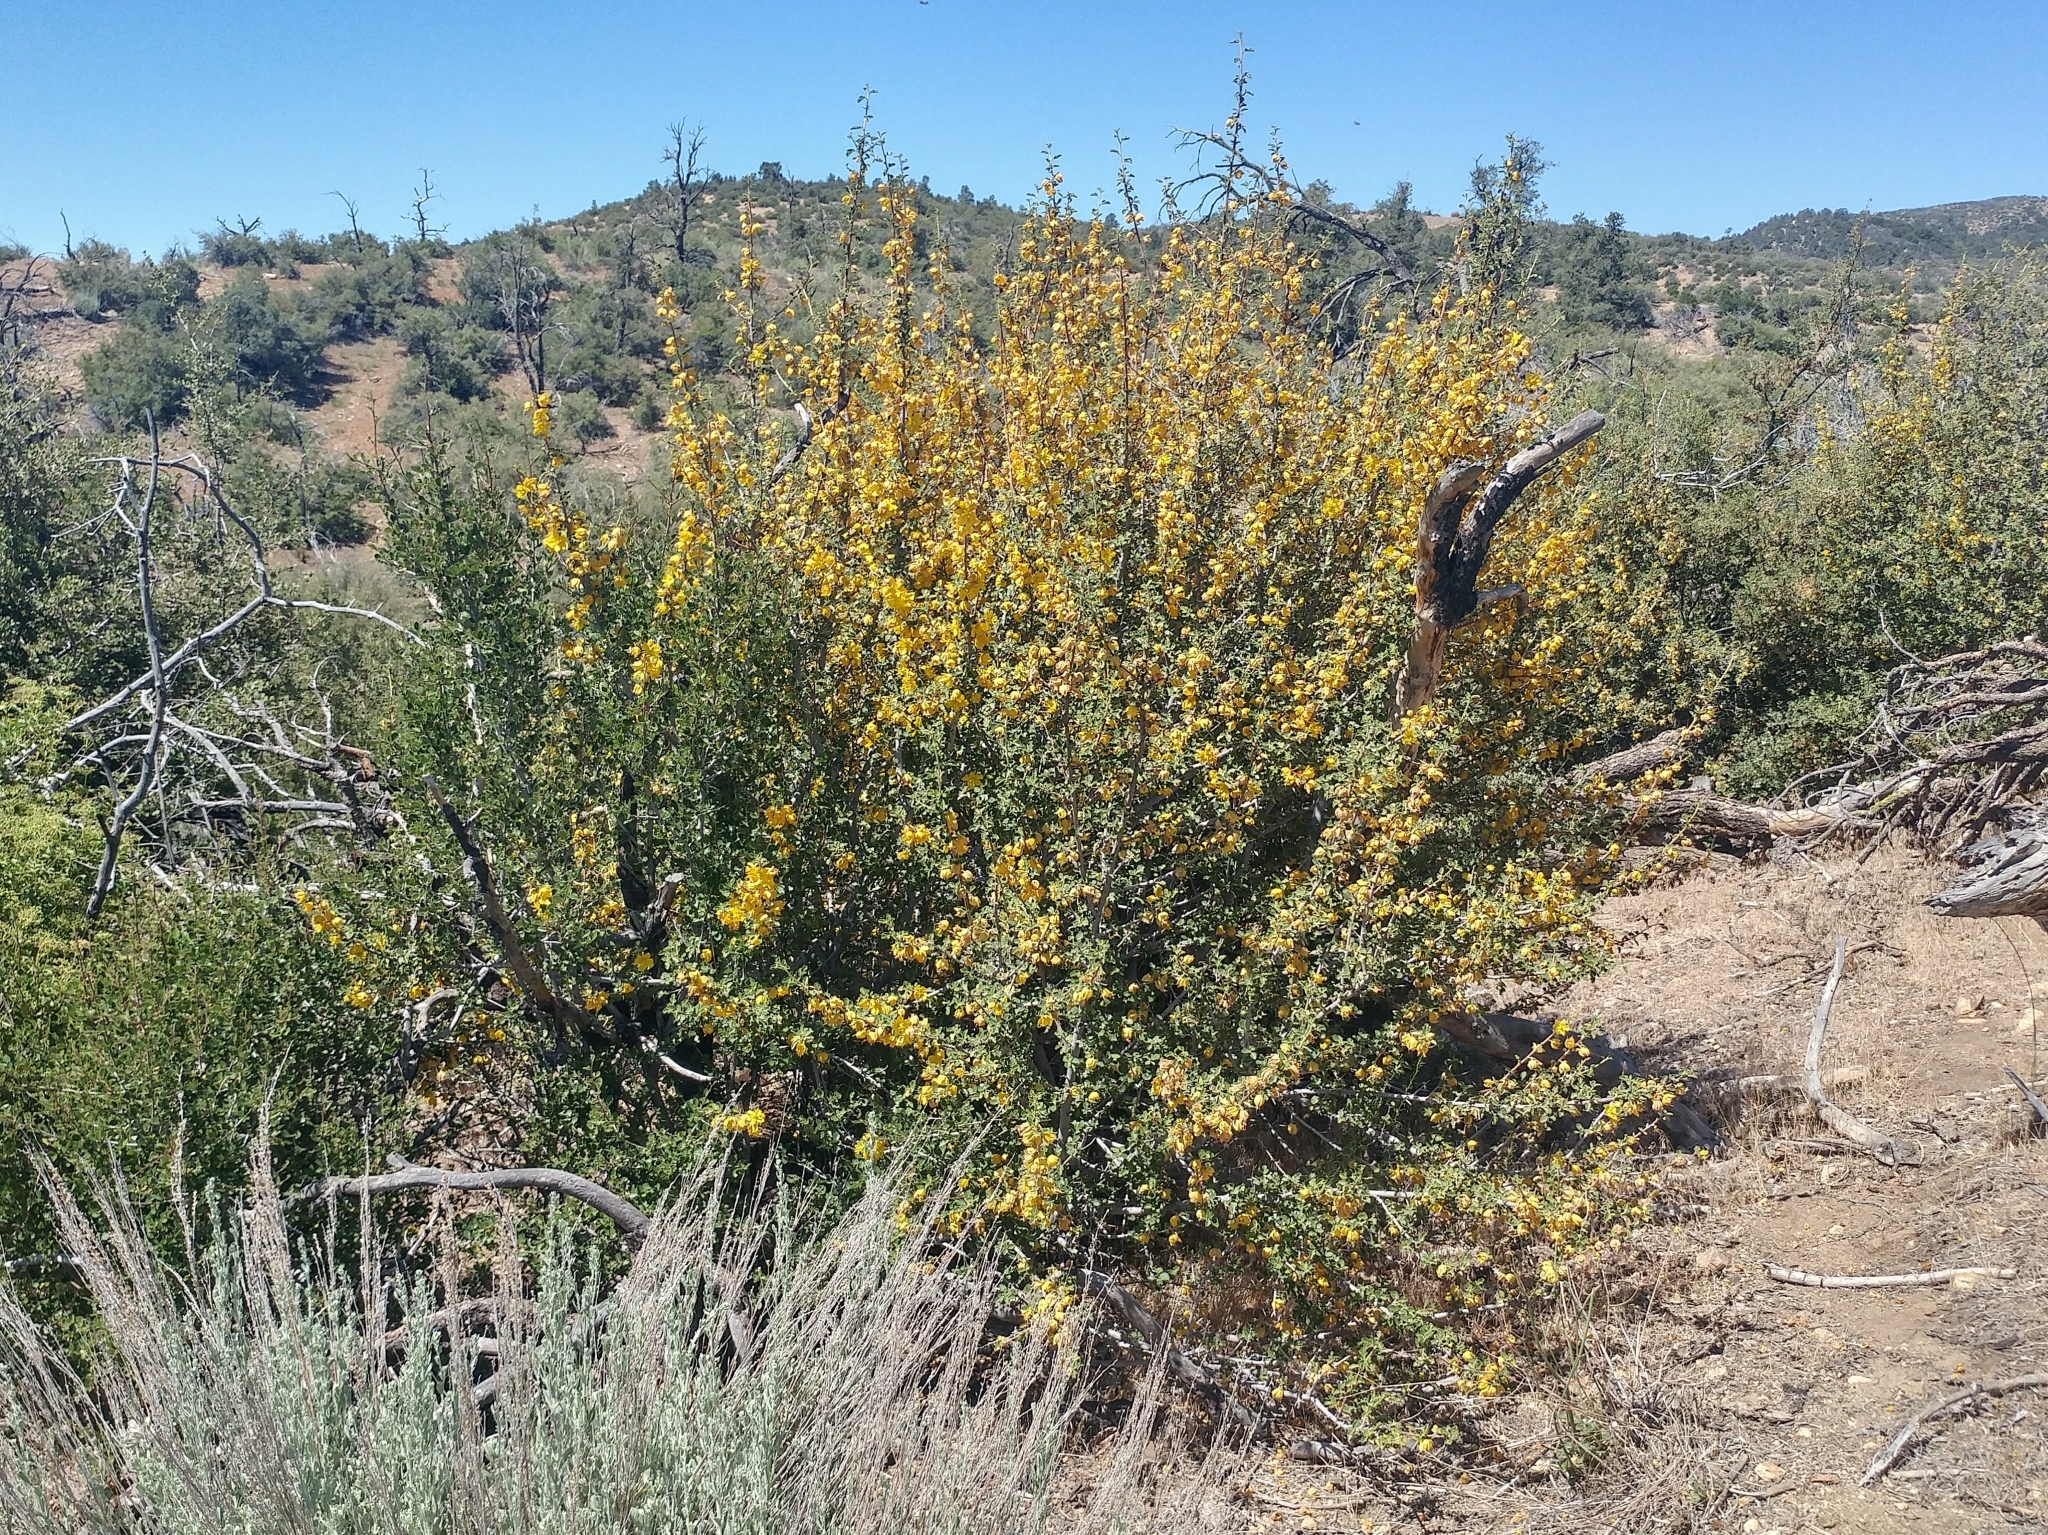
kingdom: Plantae
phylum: Tracheophyta
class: Magnoliopsida
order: Malvales
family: Malvaceae
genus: Fremontodendron
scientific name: Fremontodendron californicum
